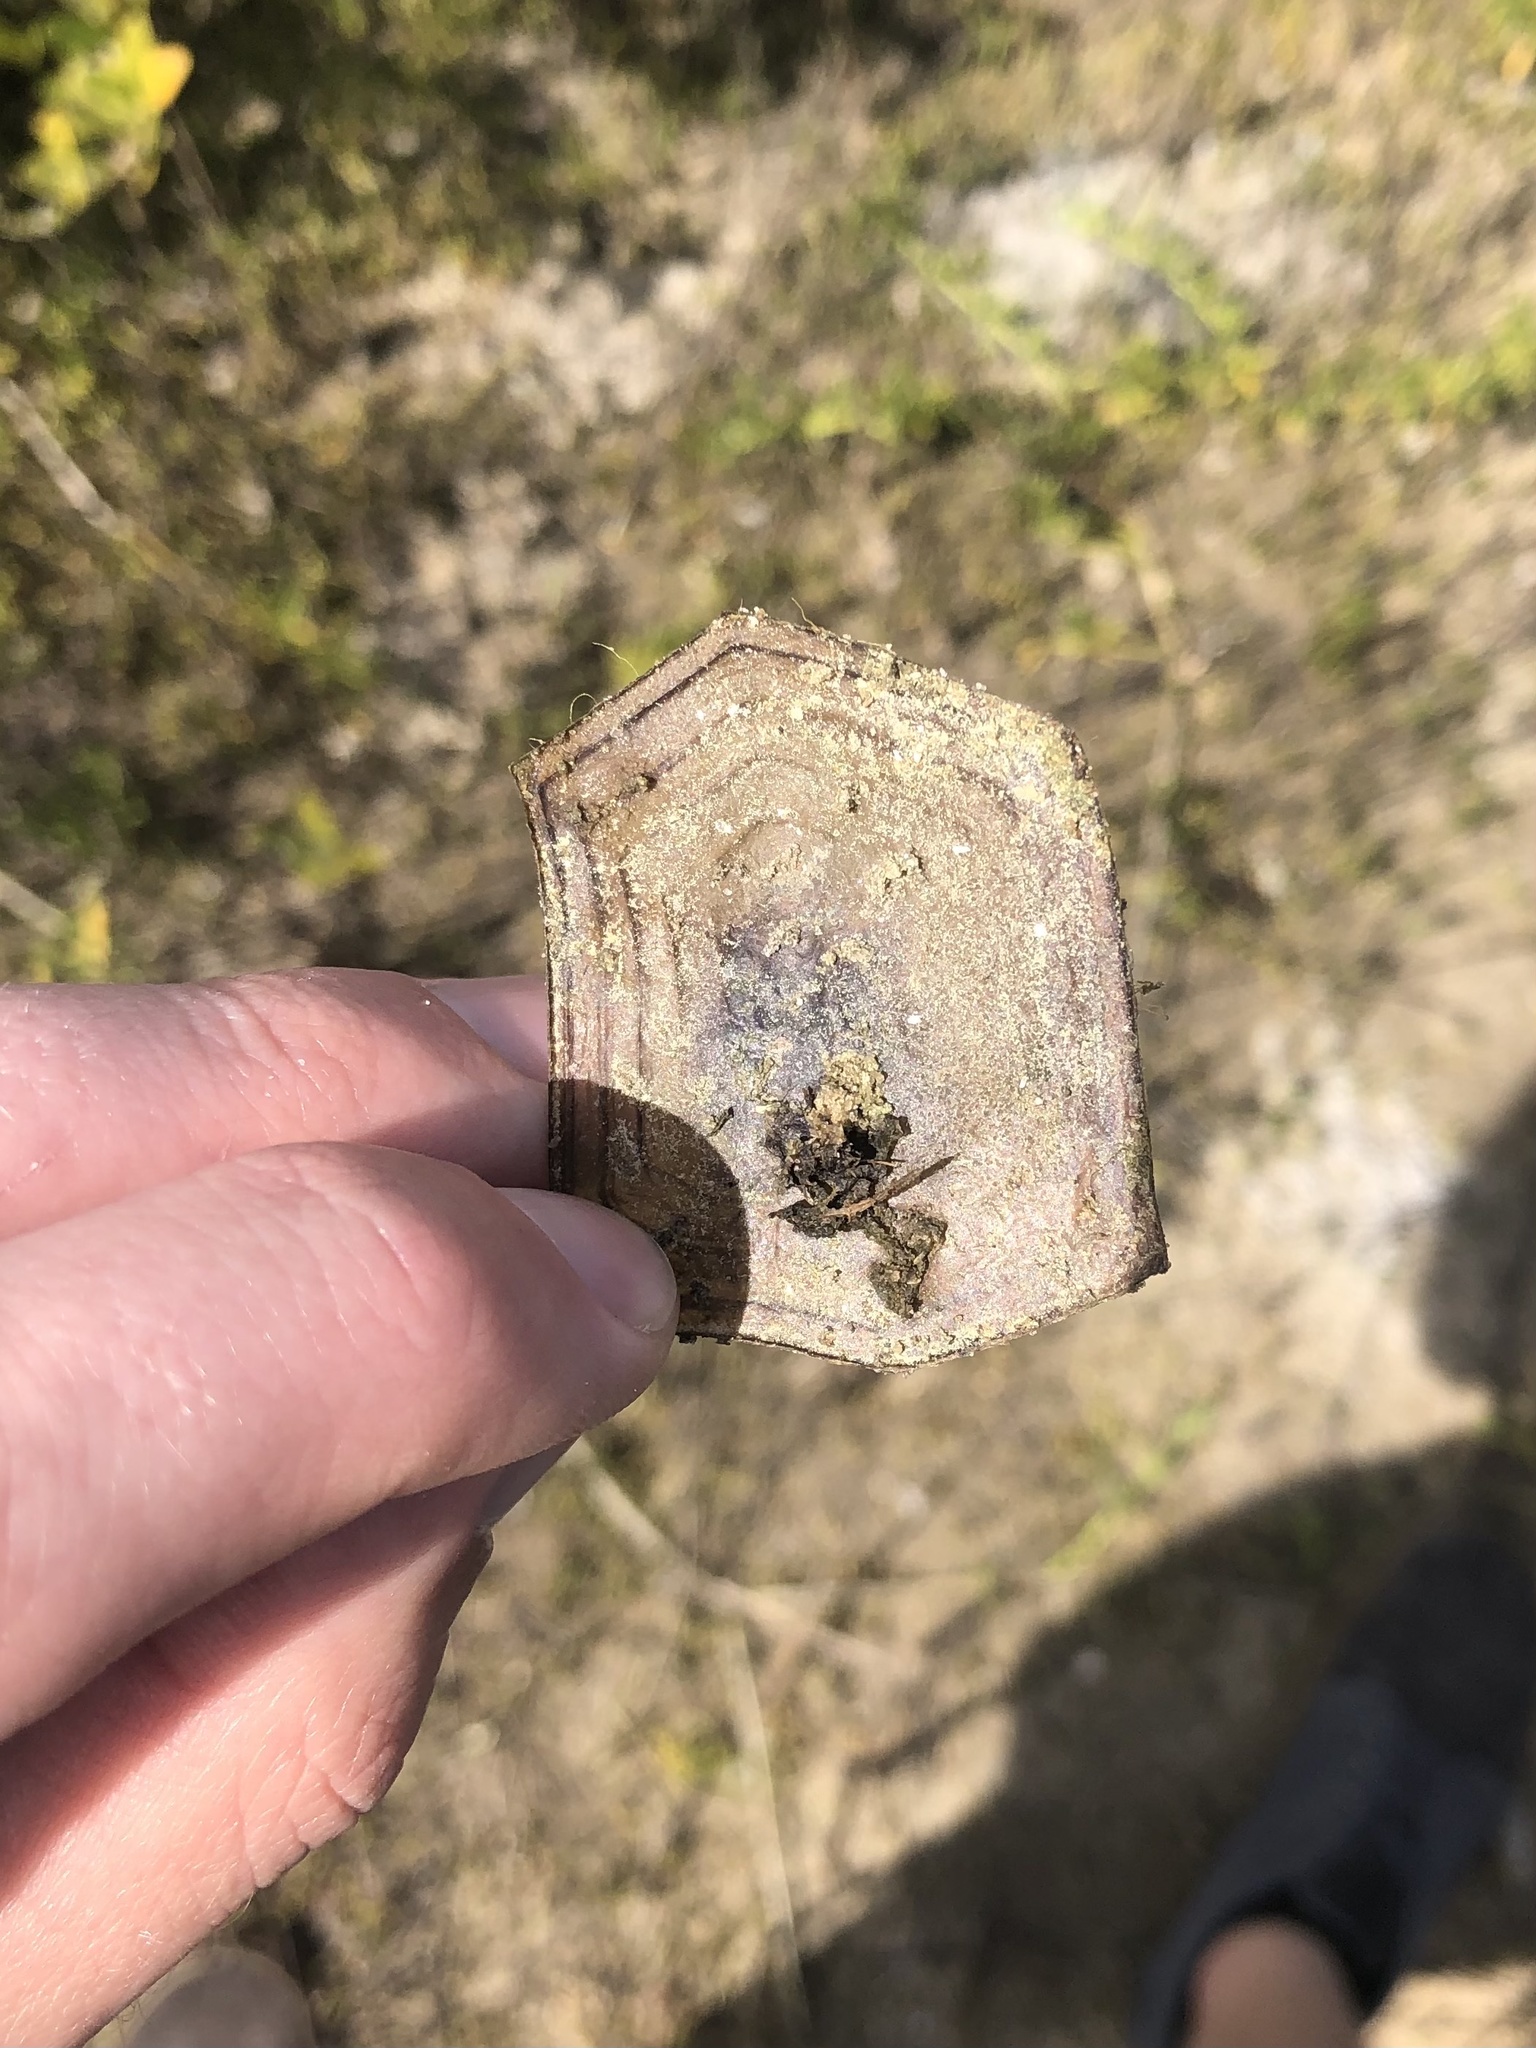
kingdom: Animalia
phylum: Chordata
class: Testudines
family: Testudinidae
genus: Gopherus
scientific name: Gopherus polyphemus
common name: Florida gopher tortoise
